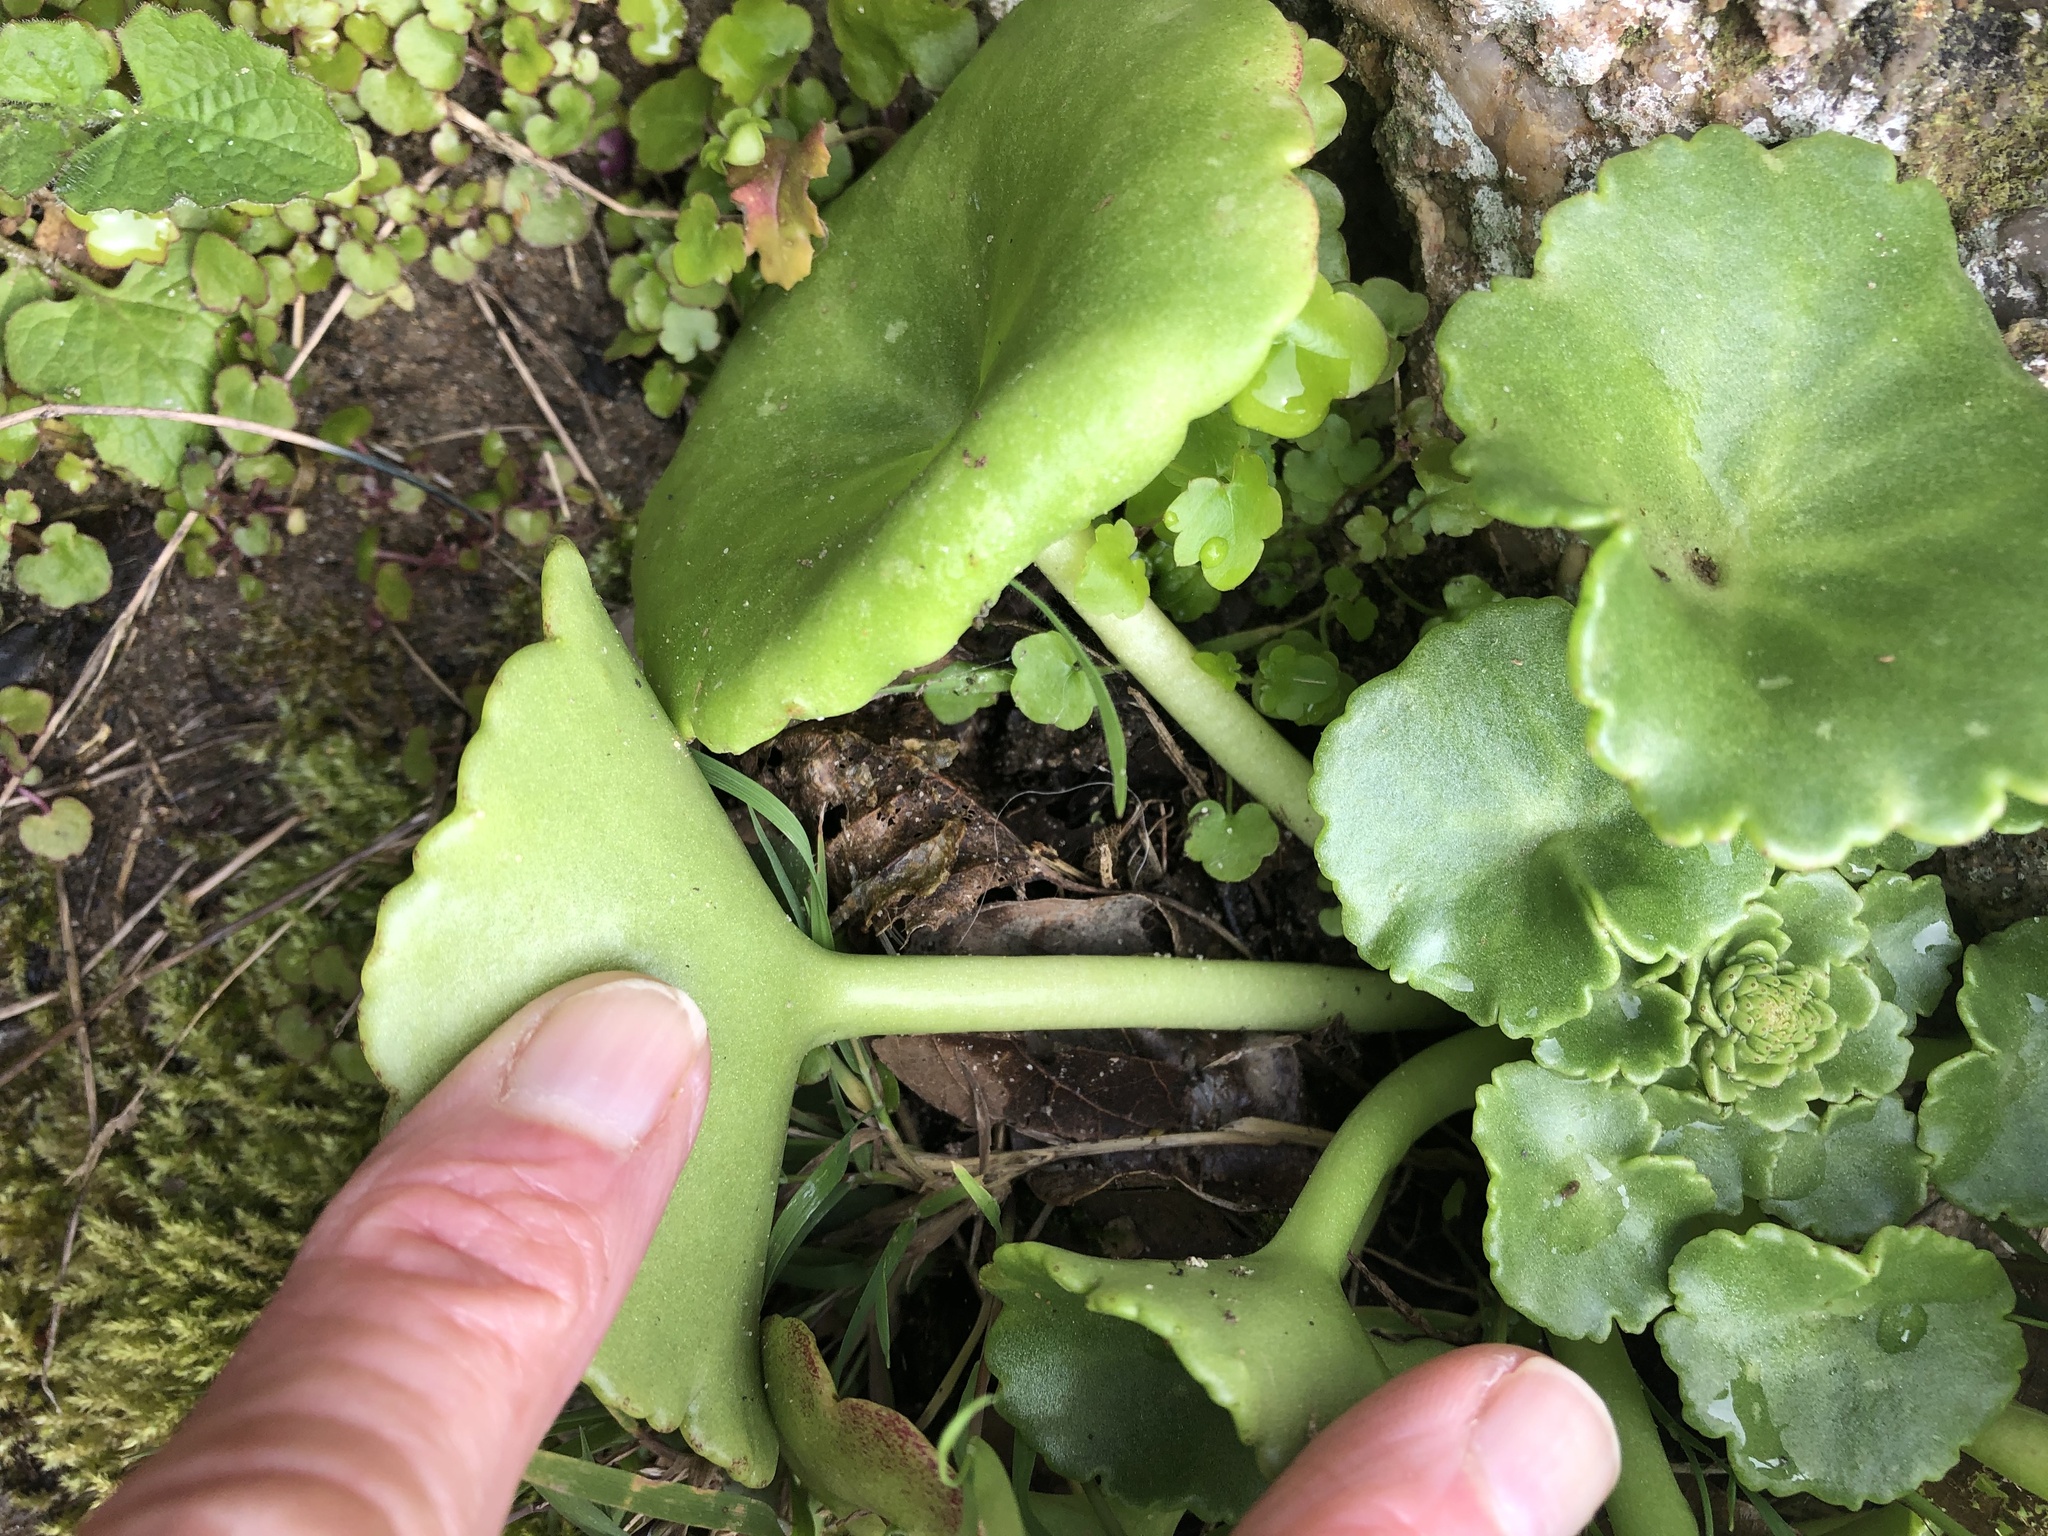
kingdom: Plantae
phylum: Tracheophyta
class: Magnoliopsida
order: Saxifragales
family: Crassulaceae
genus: Umbilicus
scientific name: Umbilicus rupestris
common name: Navelwort
